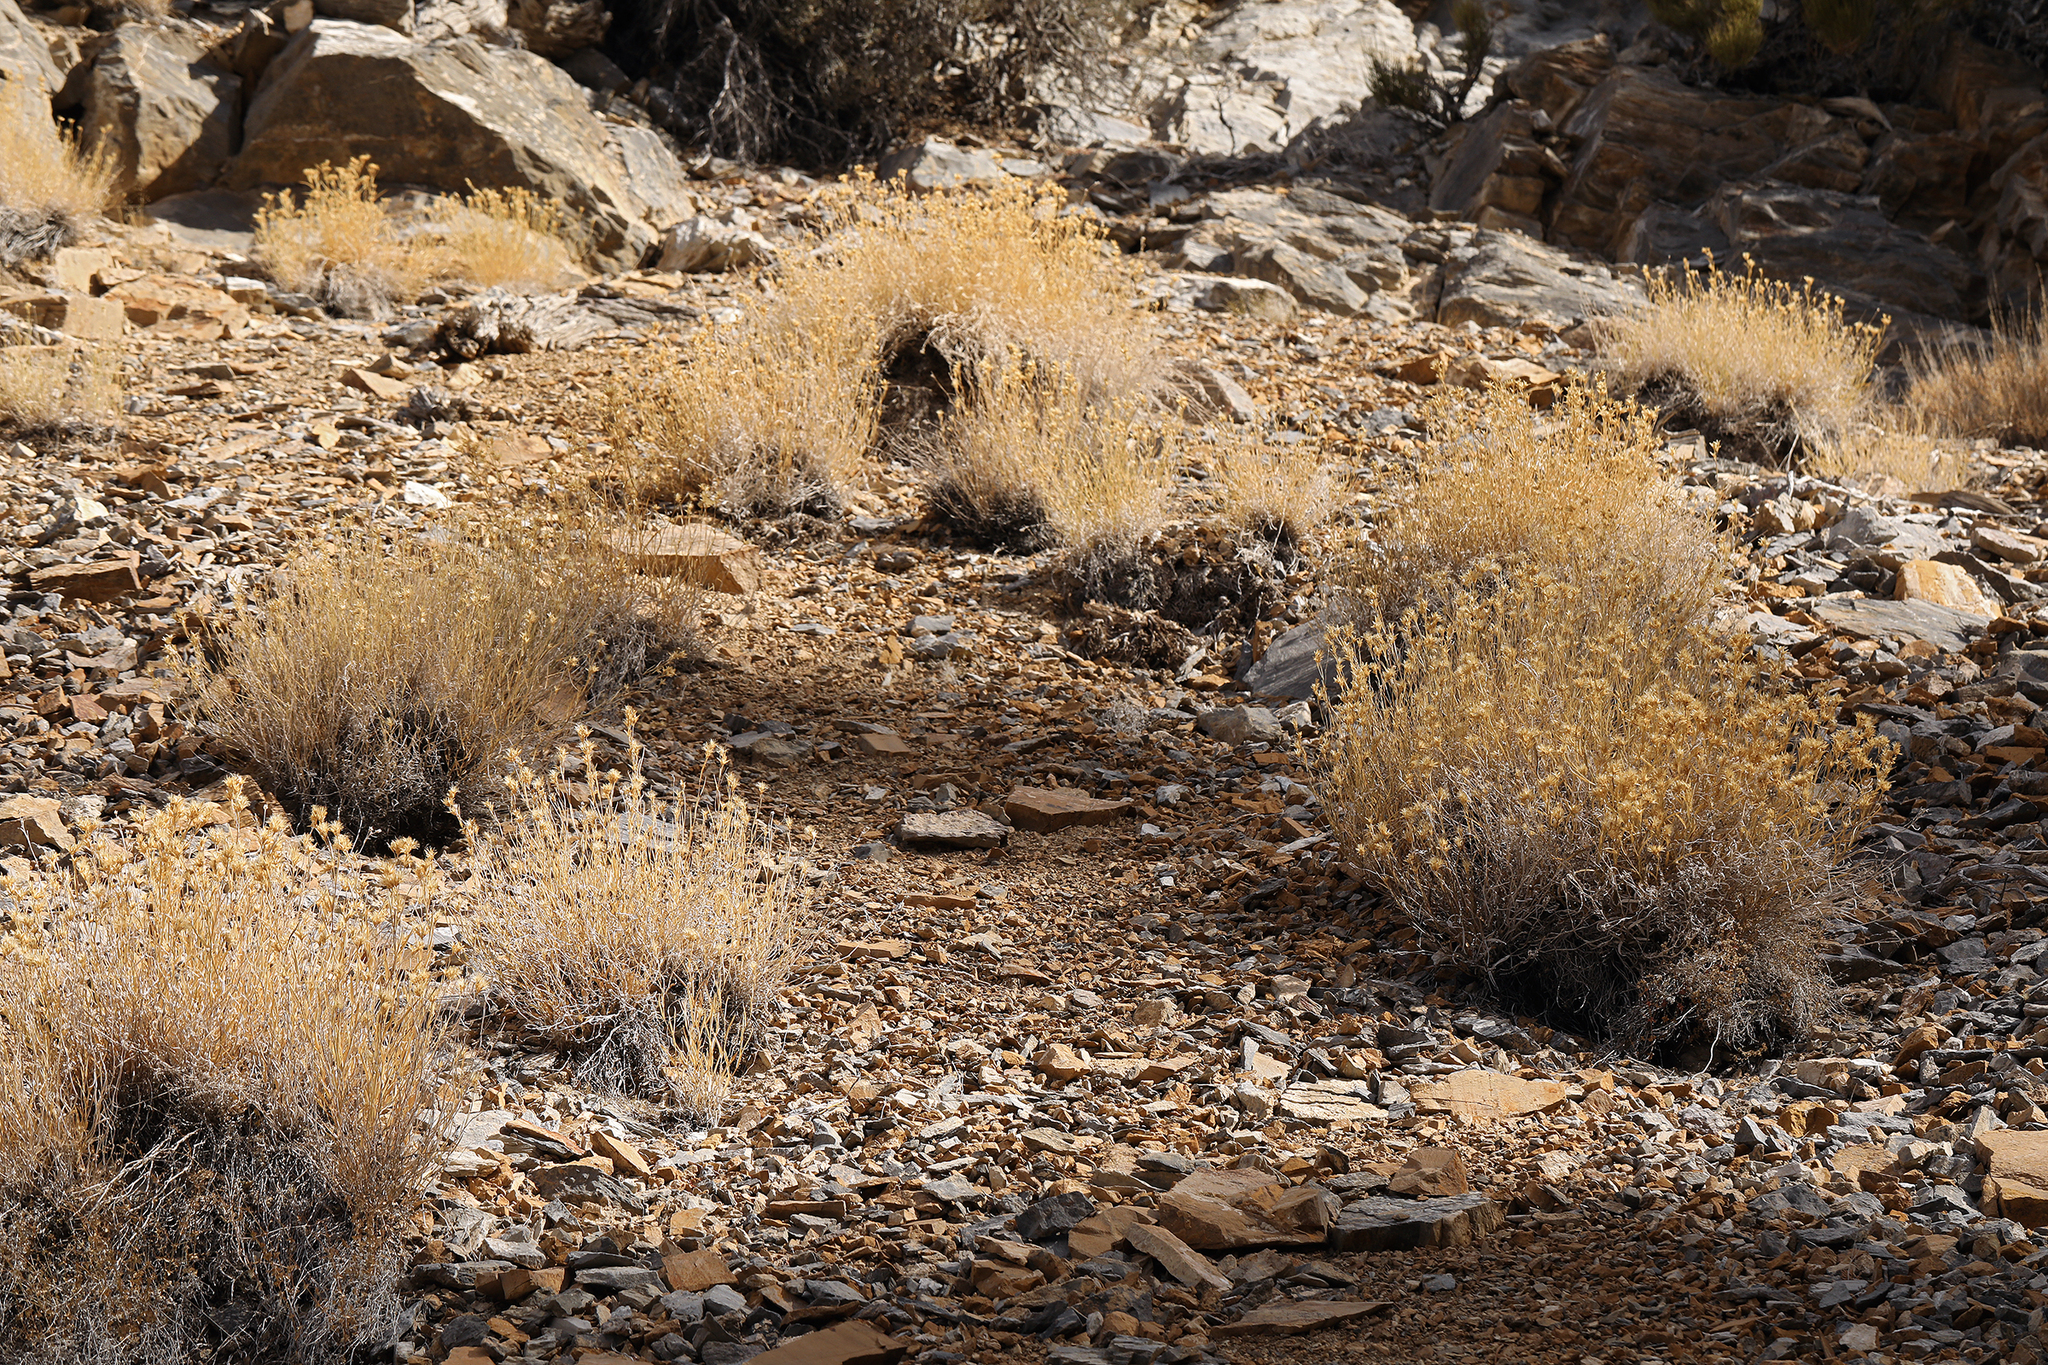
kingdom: Plantae
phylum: Tracheophyta
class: Magnoliopsida
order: Asterales
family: Asteraceae
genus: Cuniculotinus
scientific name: Cuniculotinus gramineus
